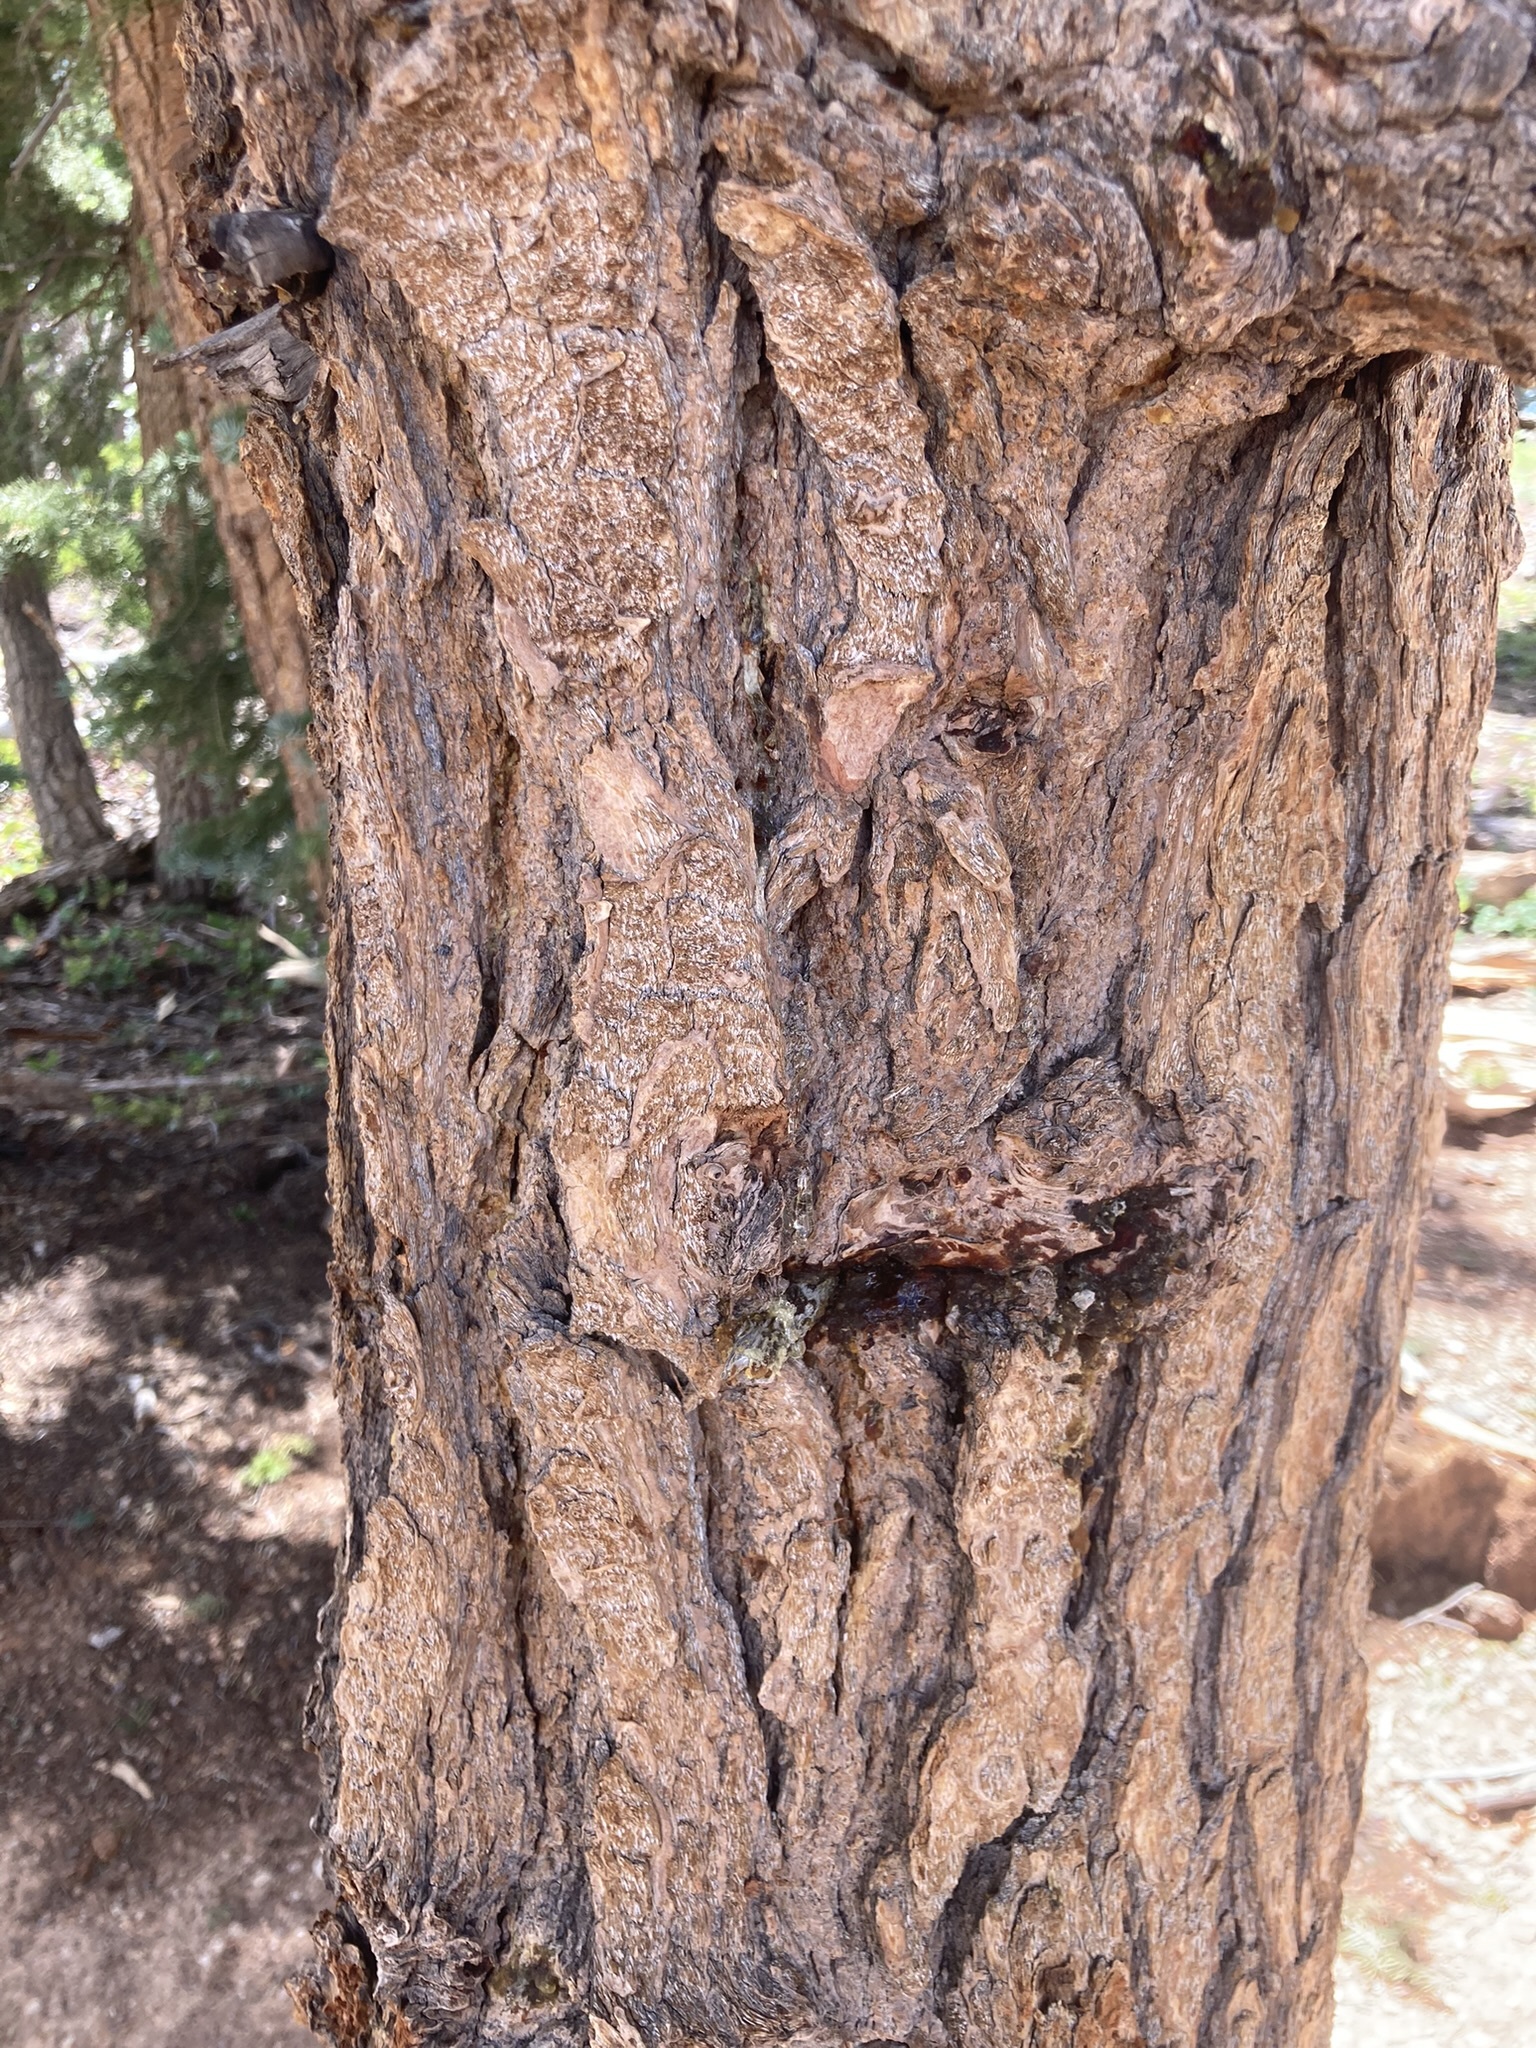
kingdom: Plantae
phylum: Tracheophyta
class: Pinopsida
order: Pinales
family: Pinaceae
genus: Abies
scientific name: Abies concolor
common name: Colorado fir
